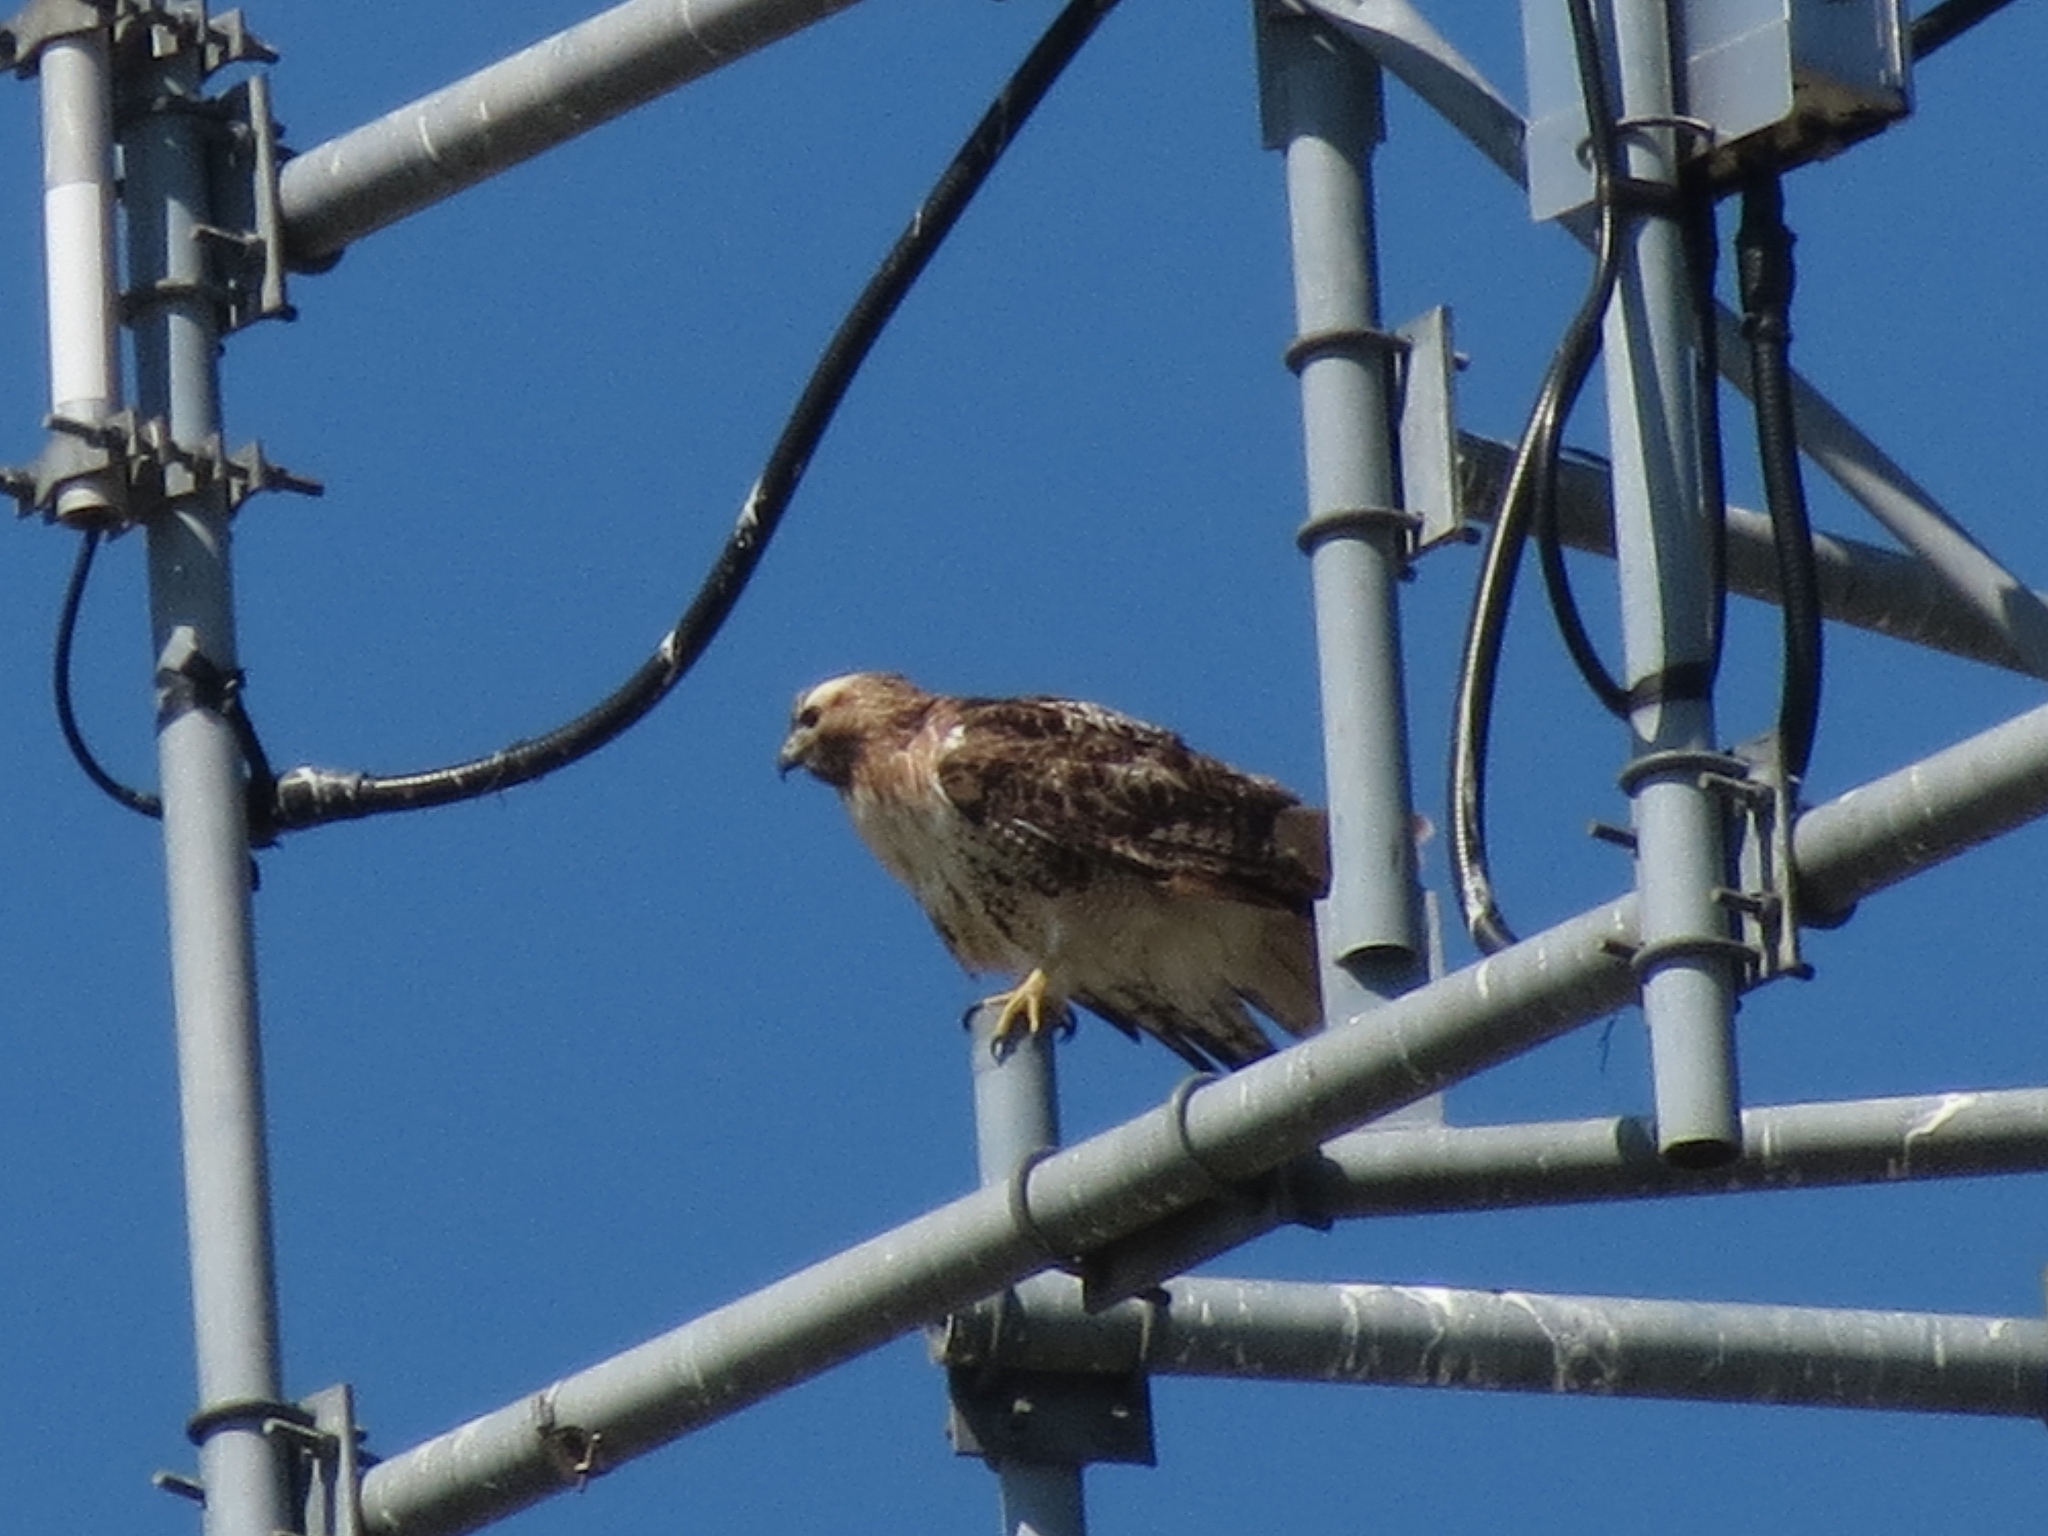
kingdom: Animalia
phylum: Chordata
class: Aves
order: Accipitriformes
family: Accipitridae
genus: Buteo
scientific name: Buteo jamaicensis
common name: Red-tailed hawk
